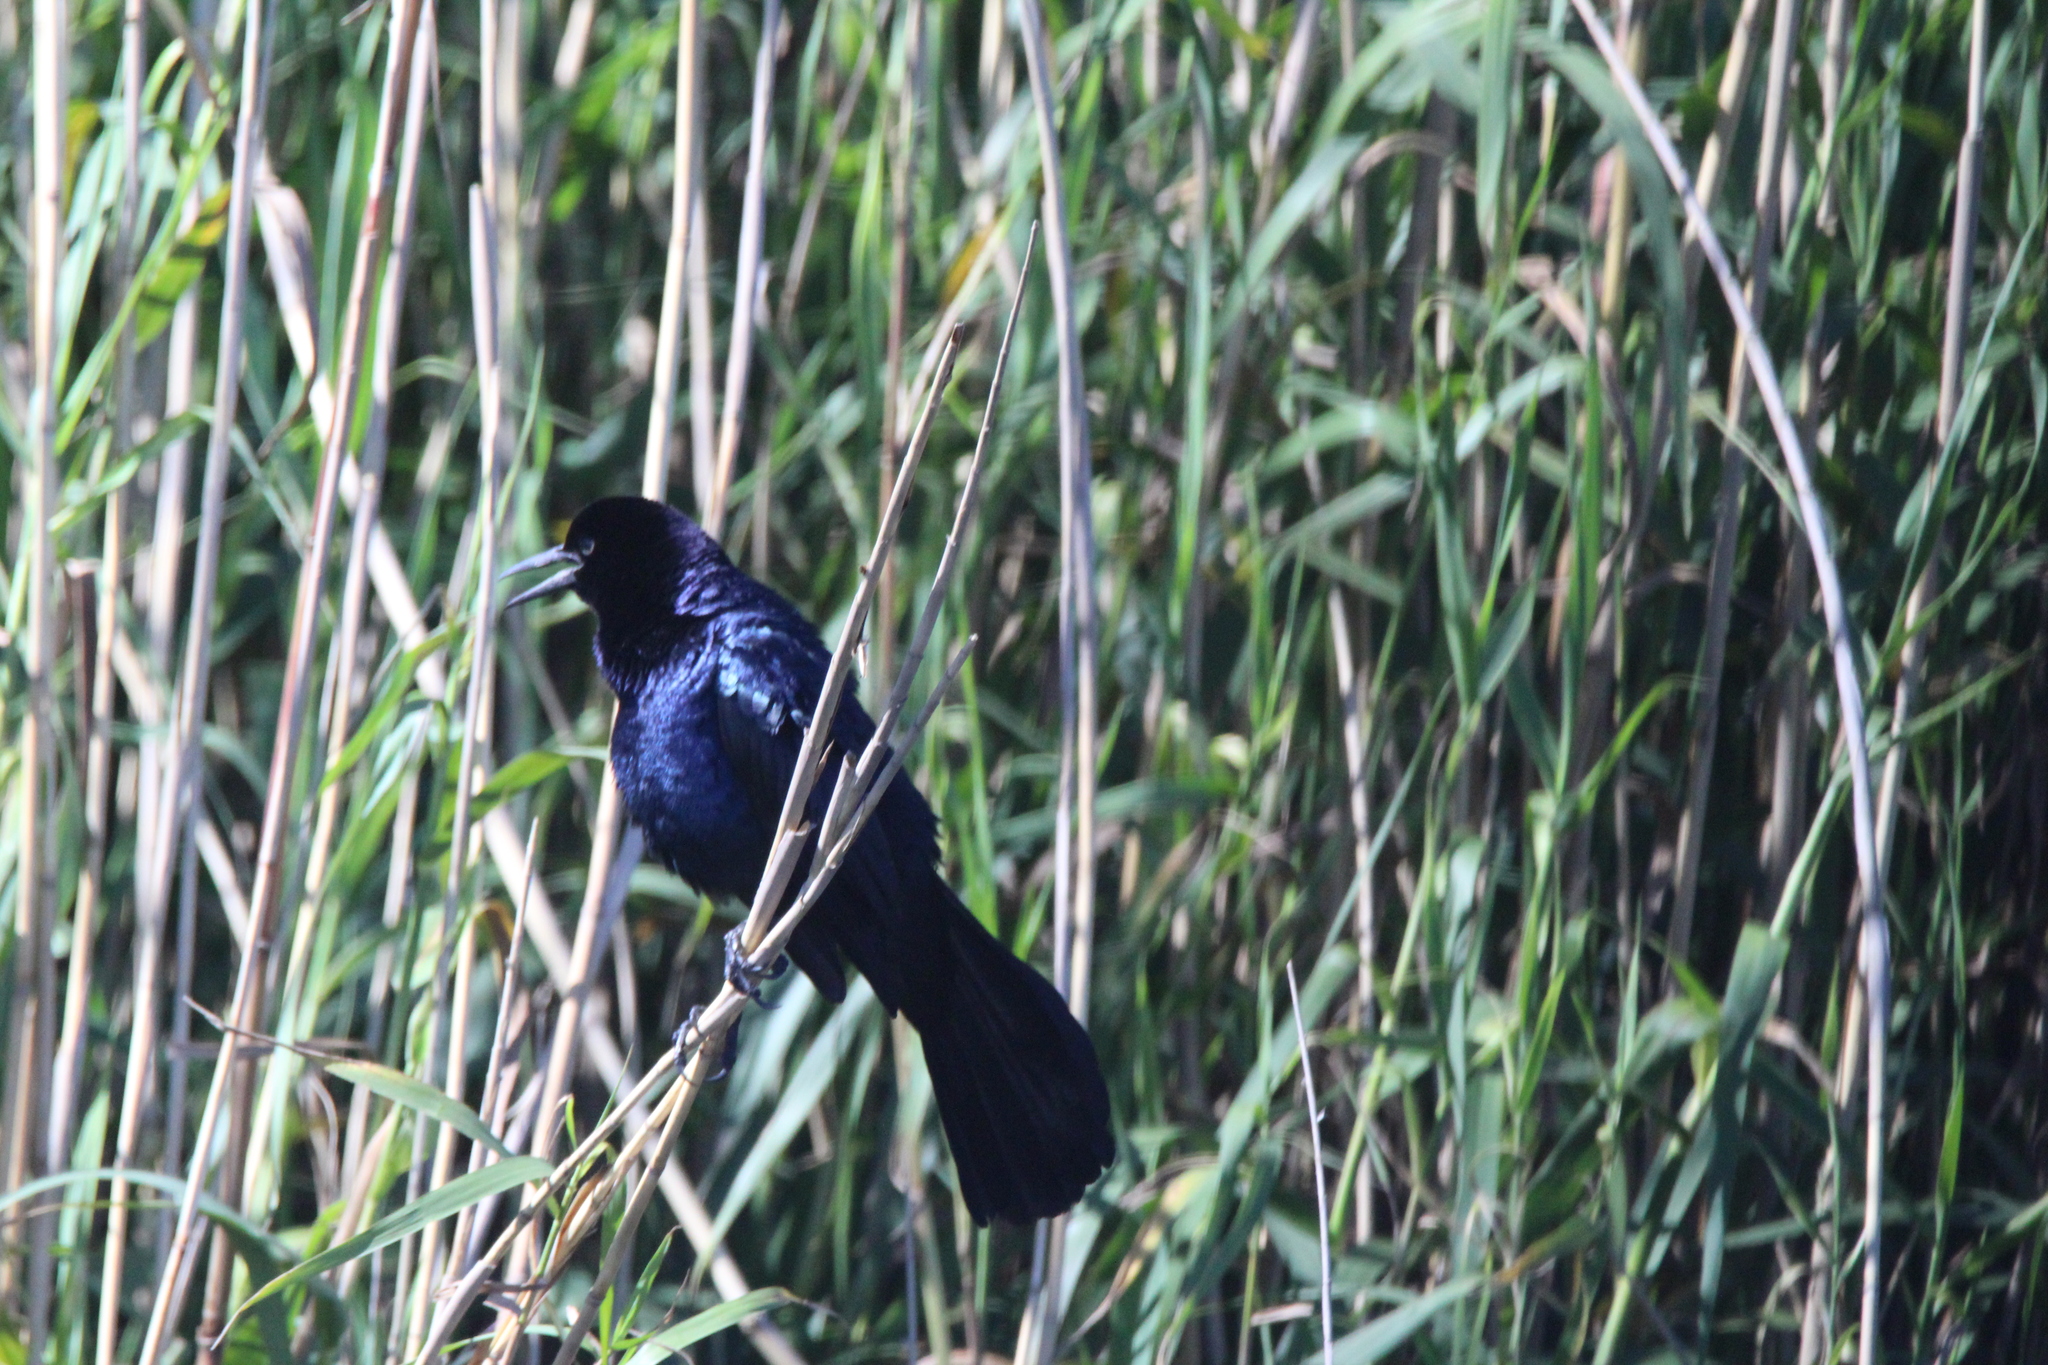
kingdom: Animalia
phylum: Chordata
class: Aves
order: Passeriformes
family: Icteridae
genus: Quiscalus
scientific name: Quiscalus major
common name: Boat-tailed grackle
